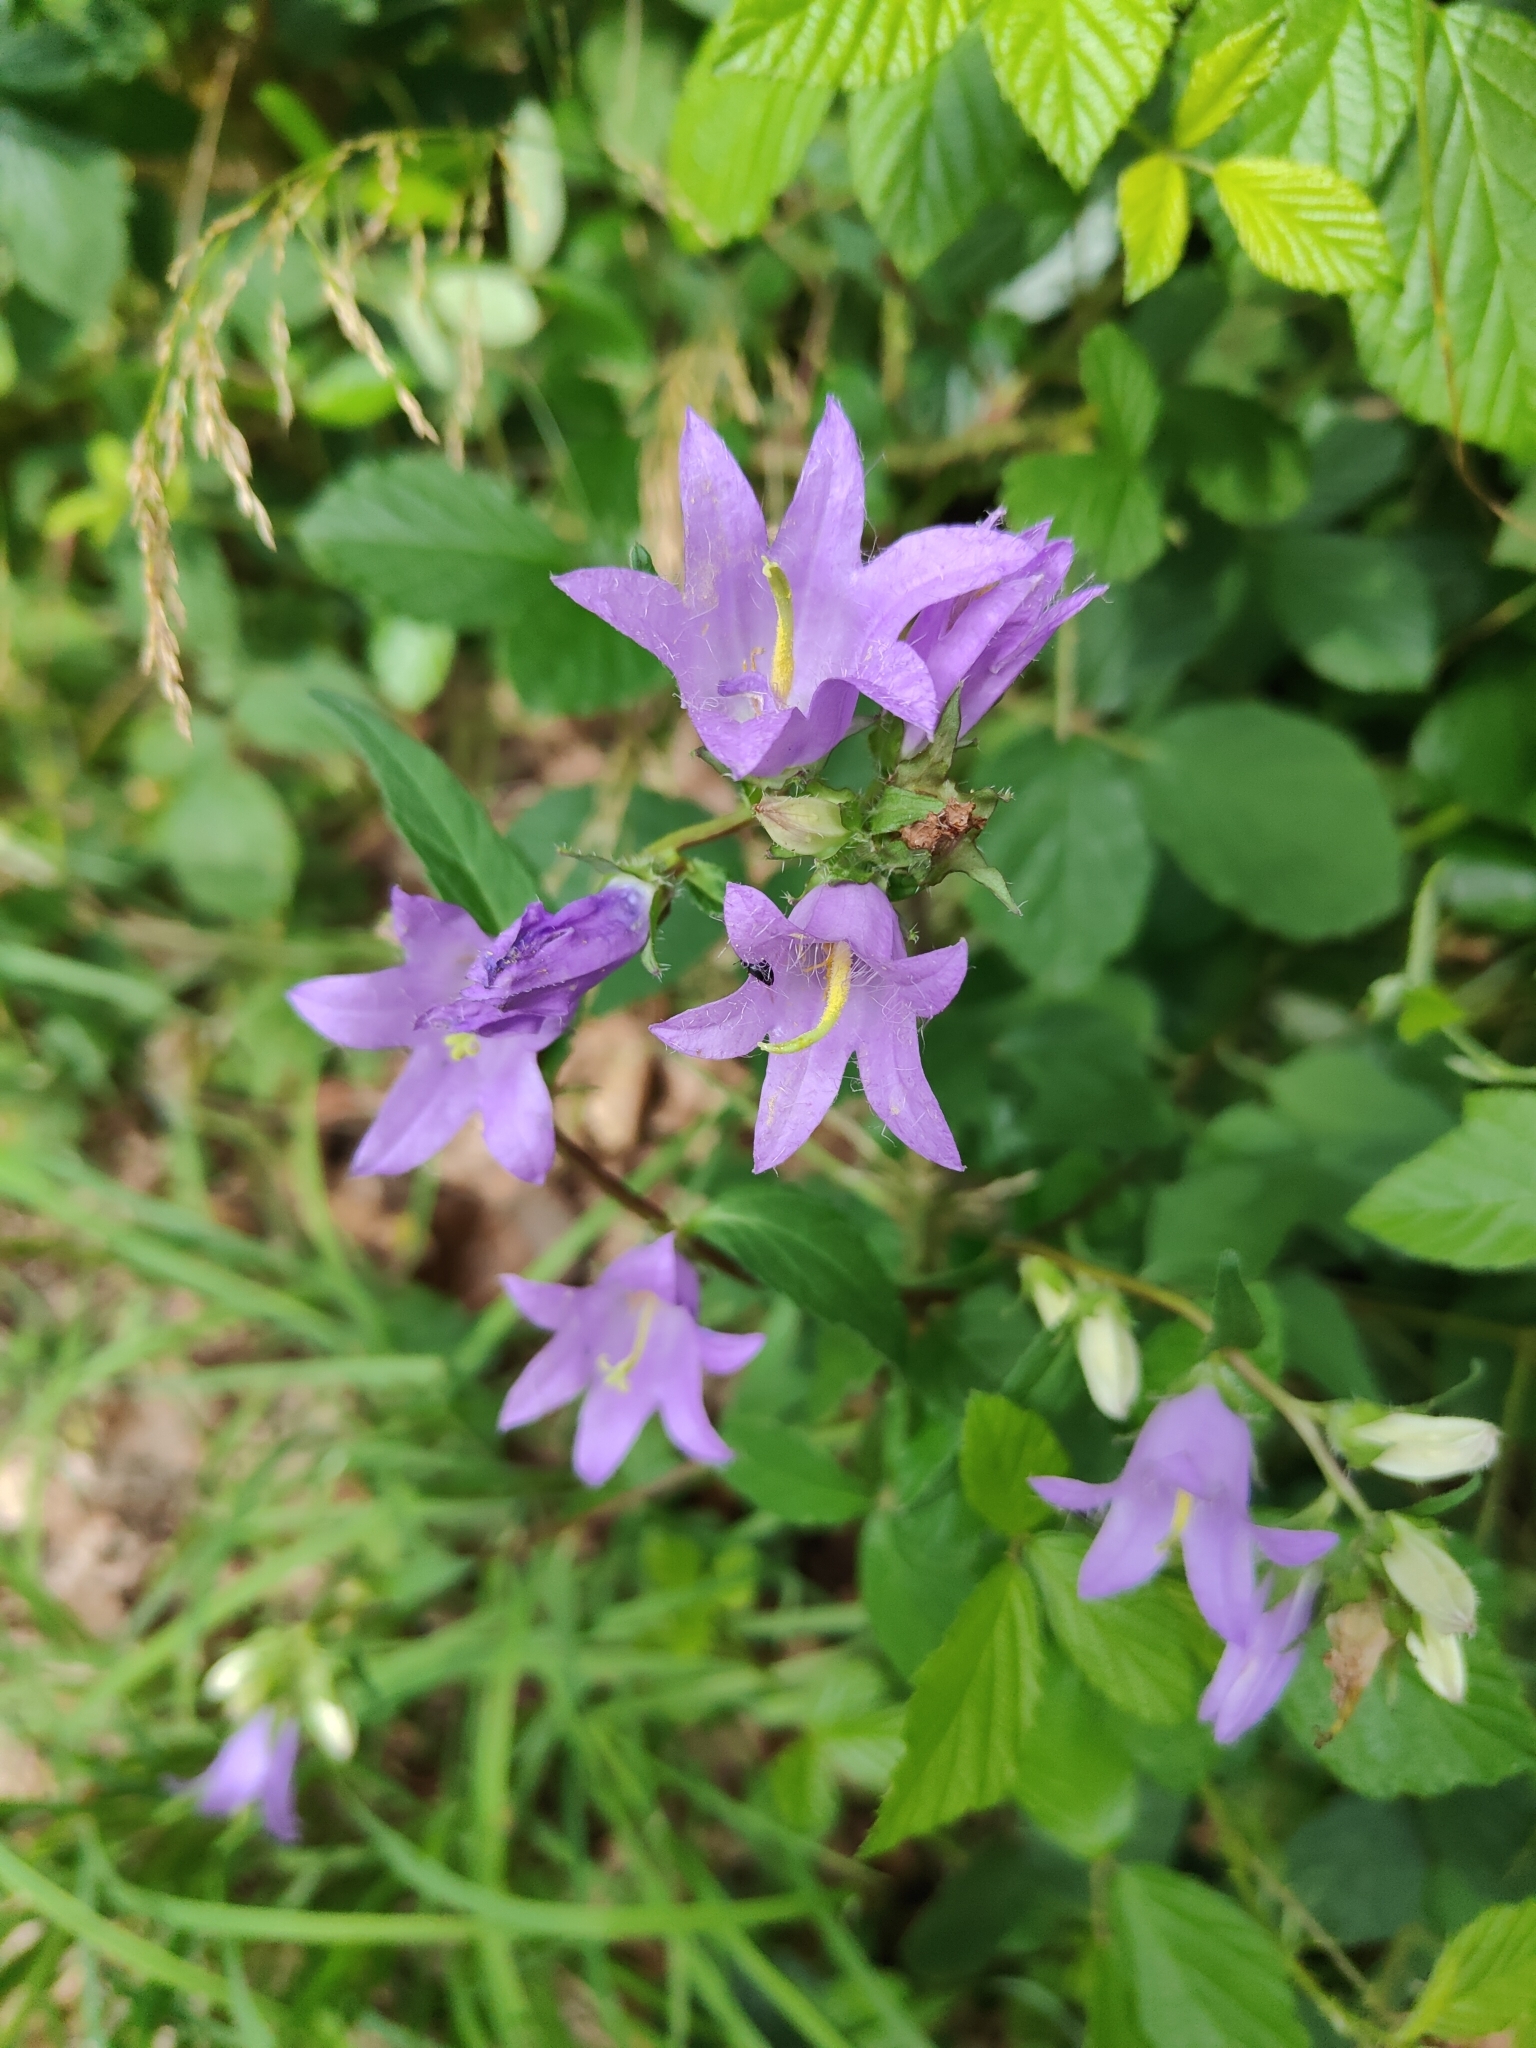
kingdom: Plantae
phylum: Tracheophyta
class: Magnoliopsida
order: Asterales
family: Campanulaceae
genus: Campanula
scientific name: Campanula trachelium
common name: Nettle-leaved bellflower
